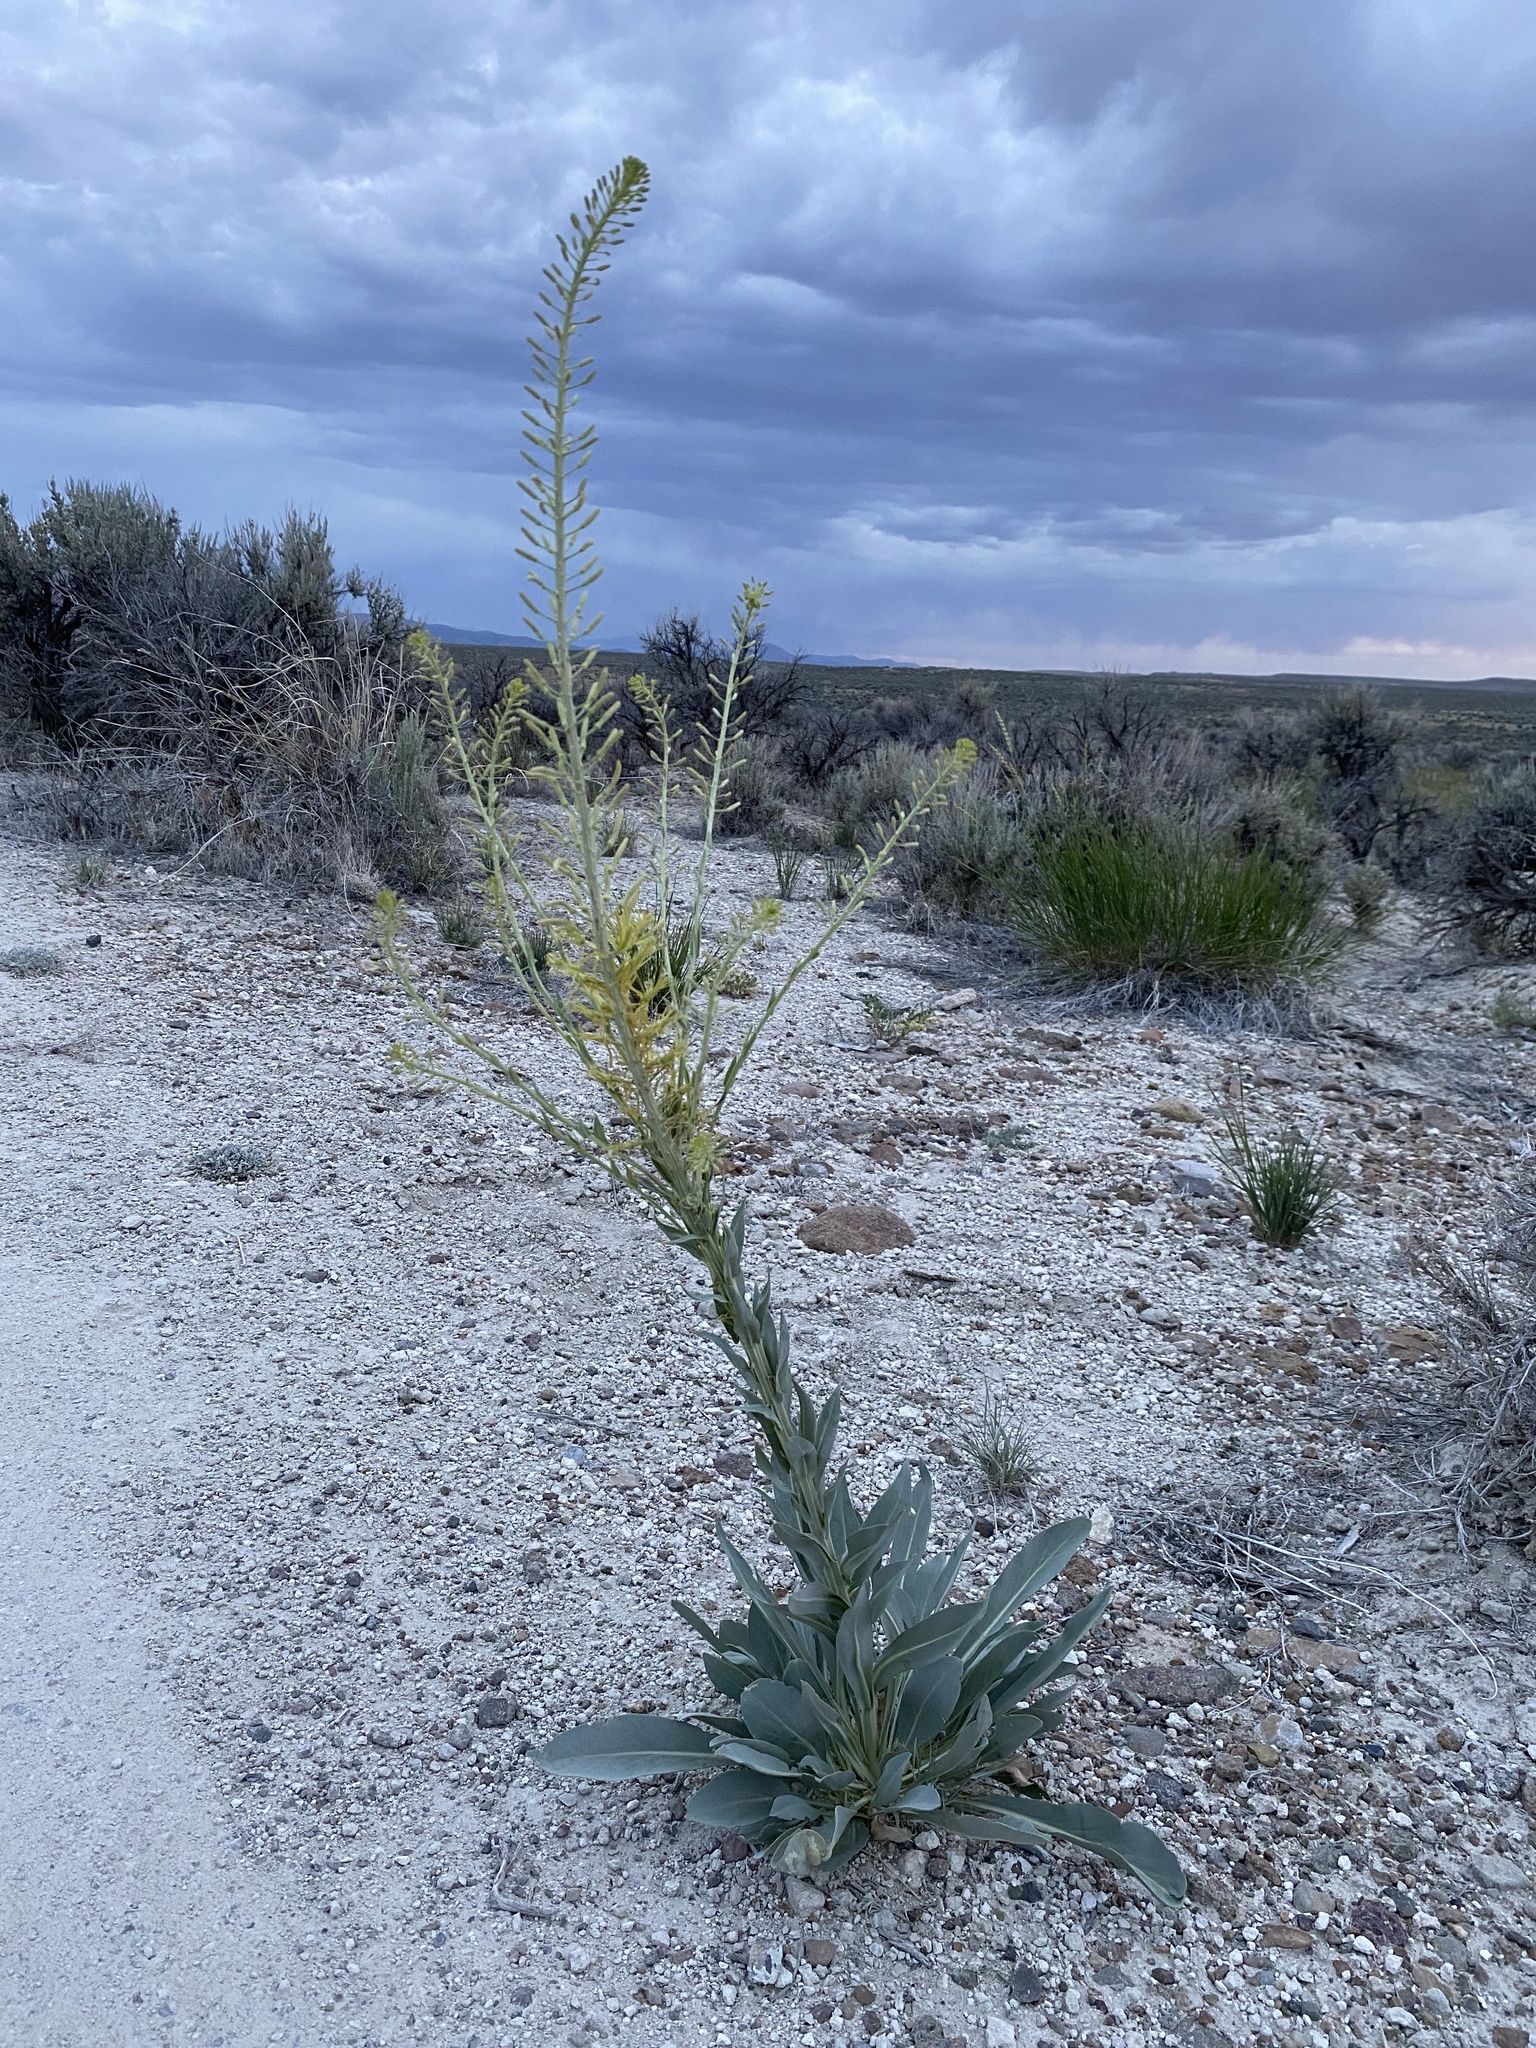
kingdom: Plantae
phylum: Tracheophyta
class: Magnoliopsida
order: Brassicales
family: Brassicaceae
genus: Stanleya
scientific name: Stanleya viridiflora
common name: Desert plume
